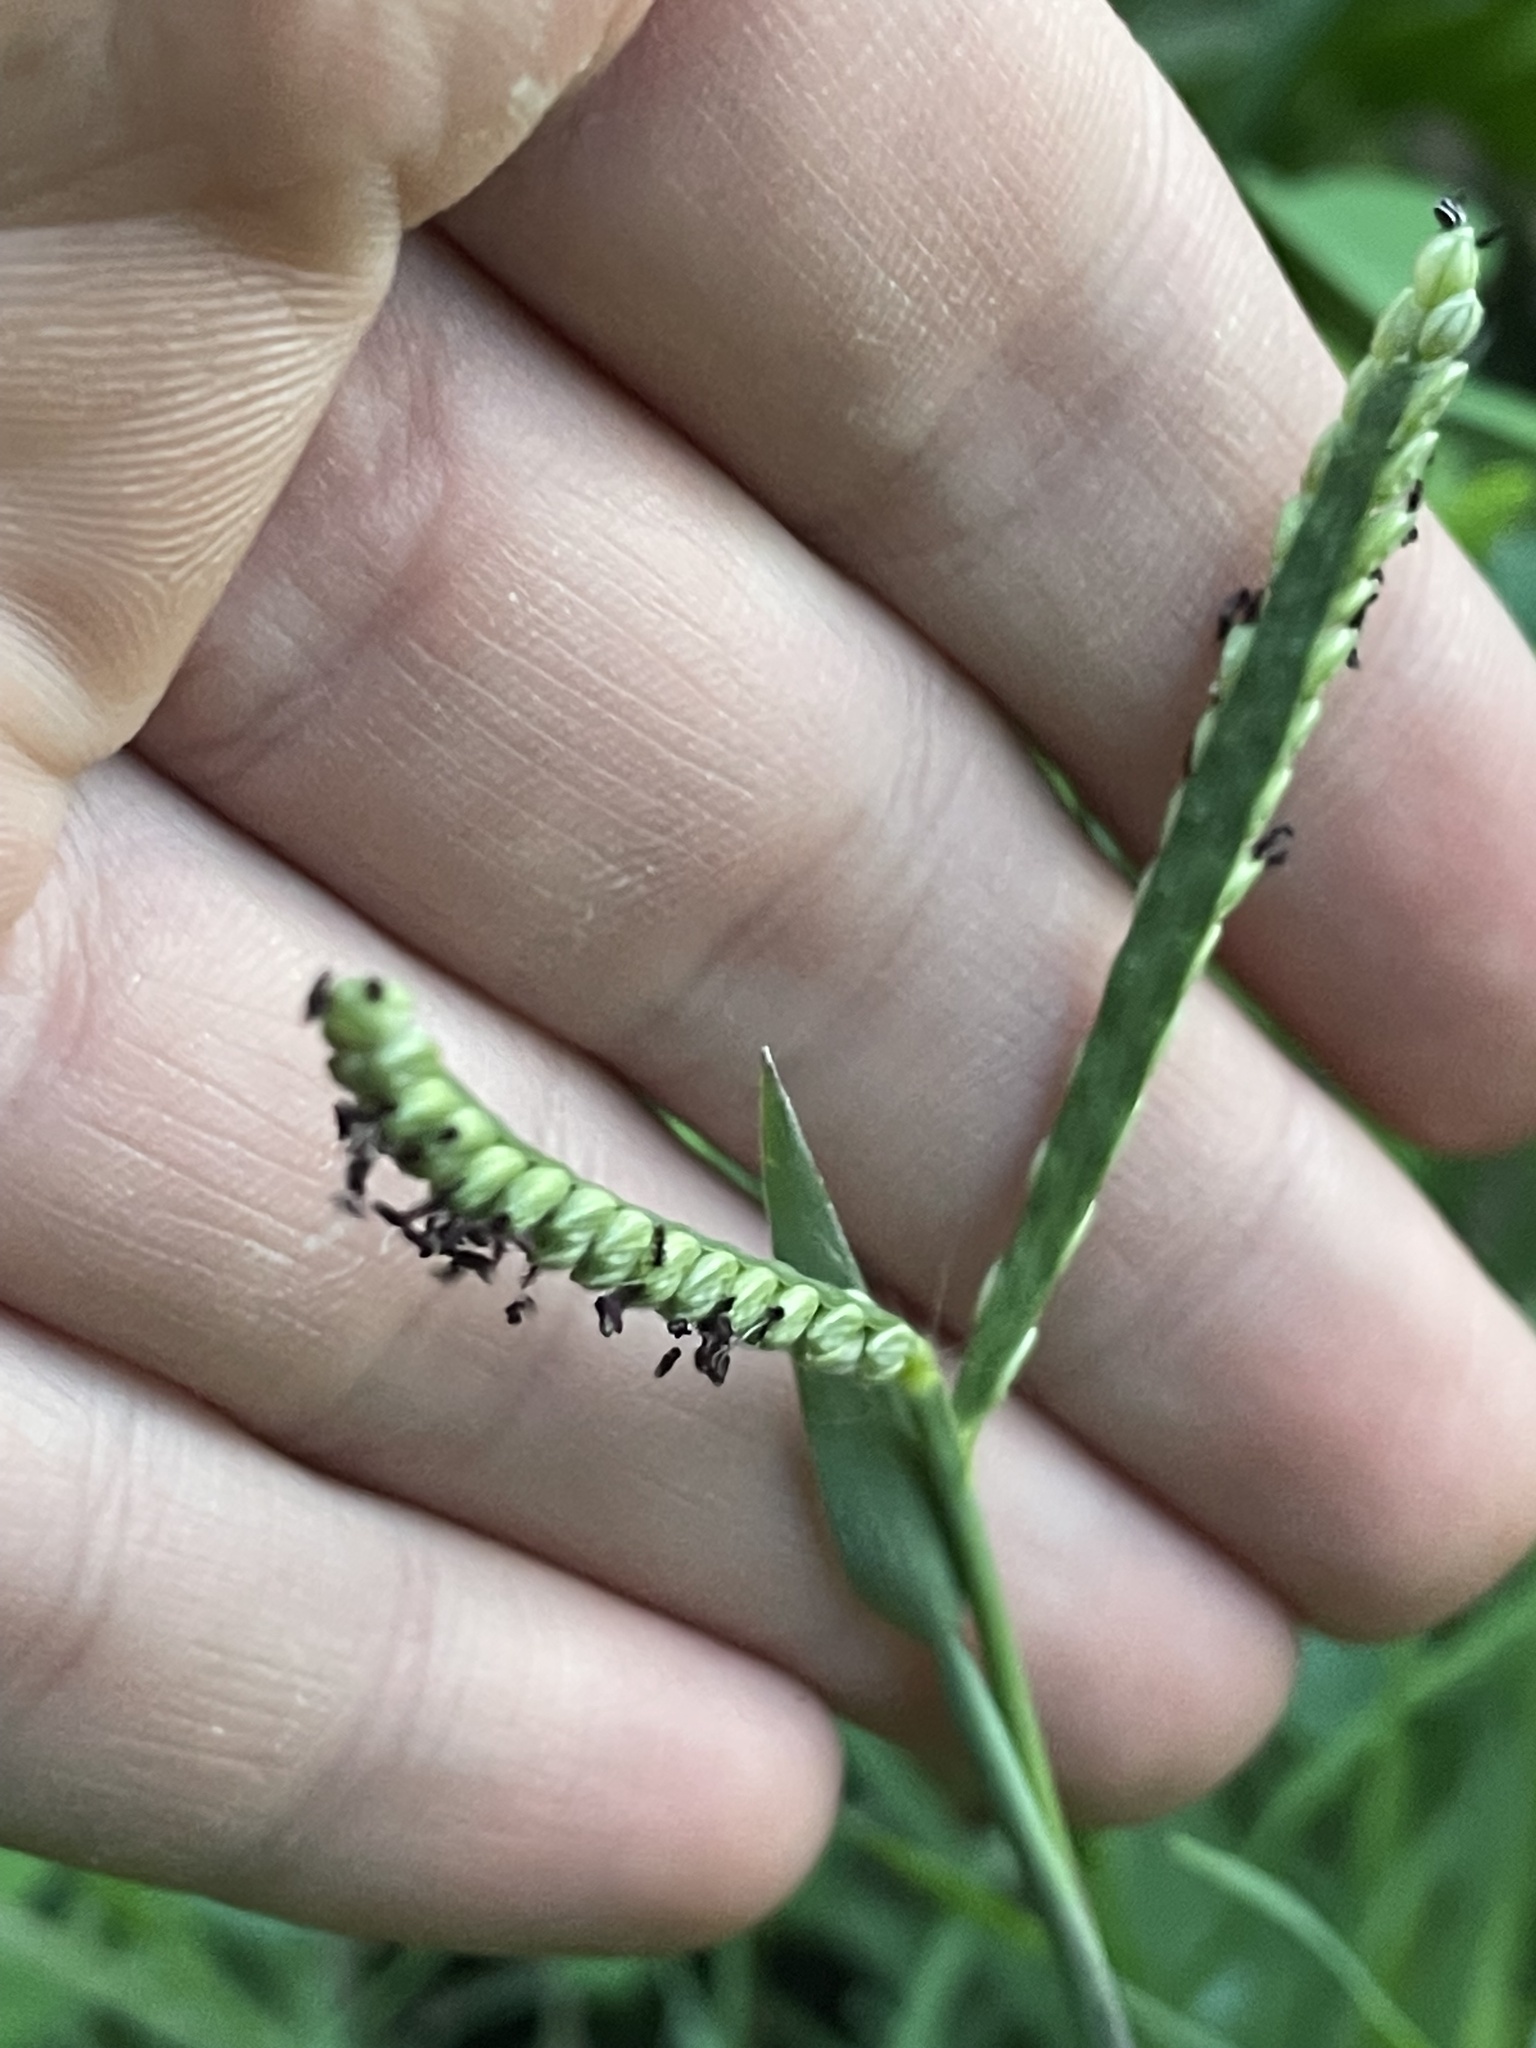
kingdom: Plantae
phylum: Tracheophyta
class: Liliopsida
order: Poales
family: Poaceae
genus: Paspalum
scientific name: Paspalum pubiflorum
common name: Hairy-seed paspalum
